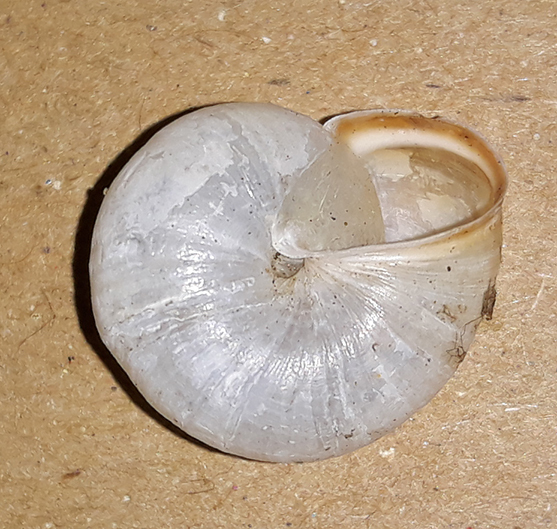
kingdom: Animalia
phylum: Mollusca
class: Gastropoda
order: Stylommatophora
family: Hygromiidae
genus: Monacha
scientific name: Monacha cartusiana
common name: Carthusian snail
